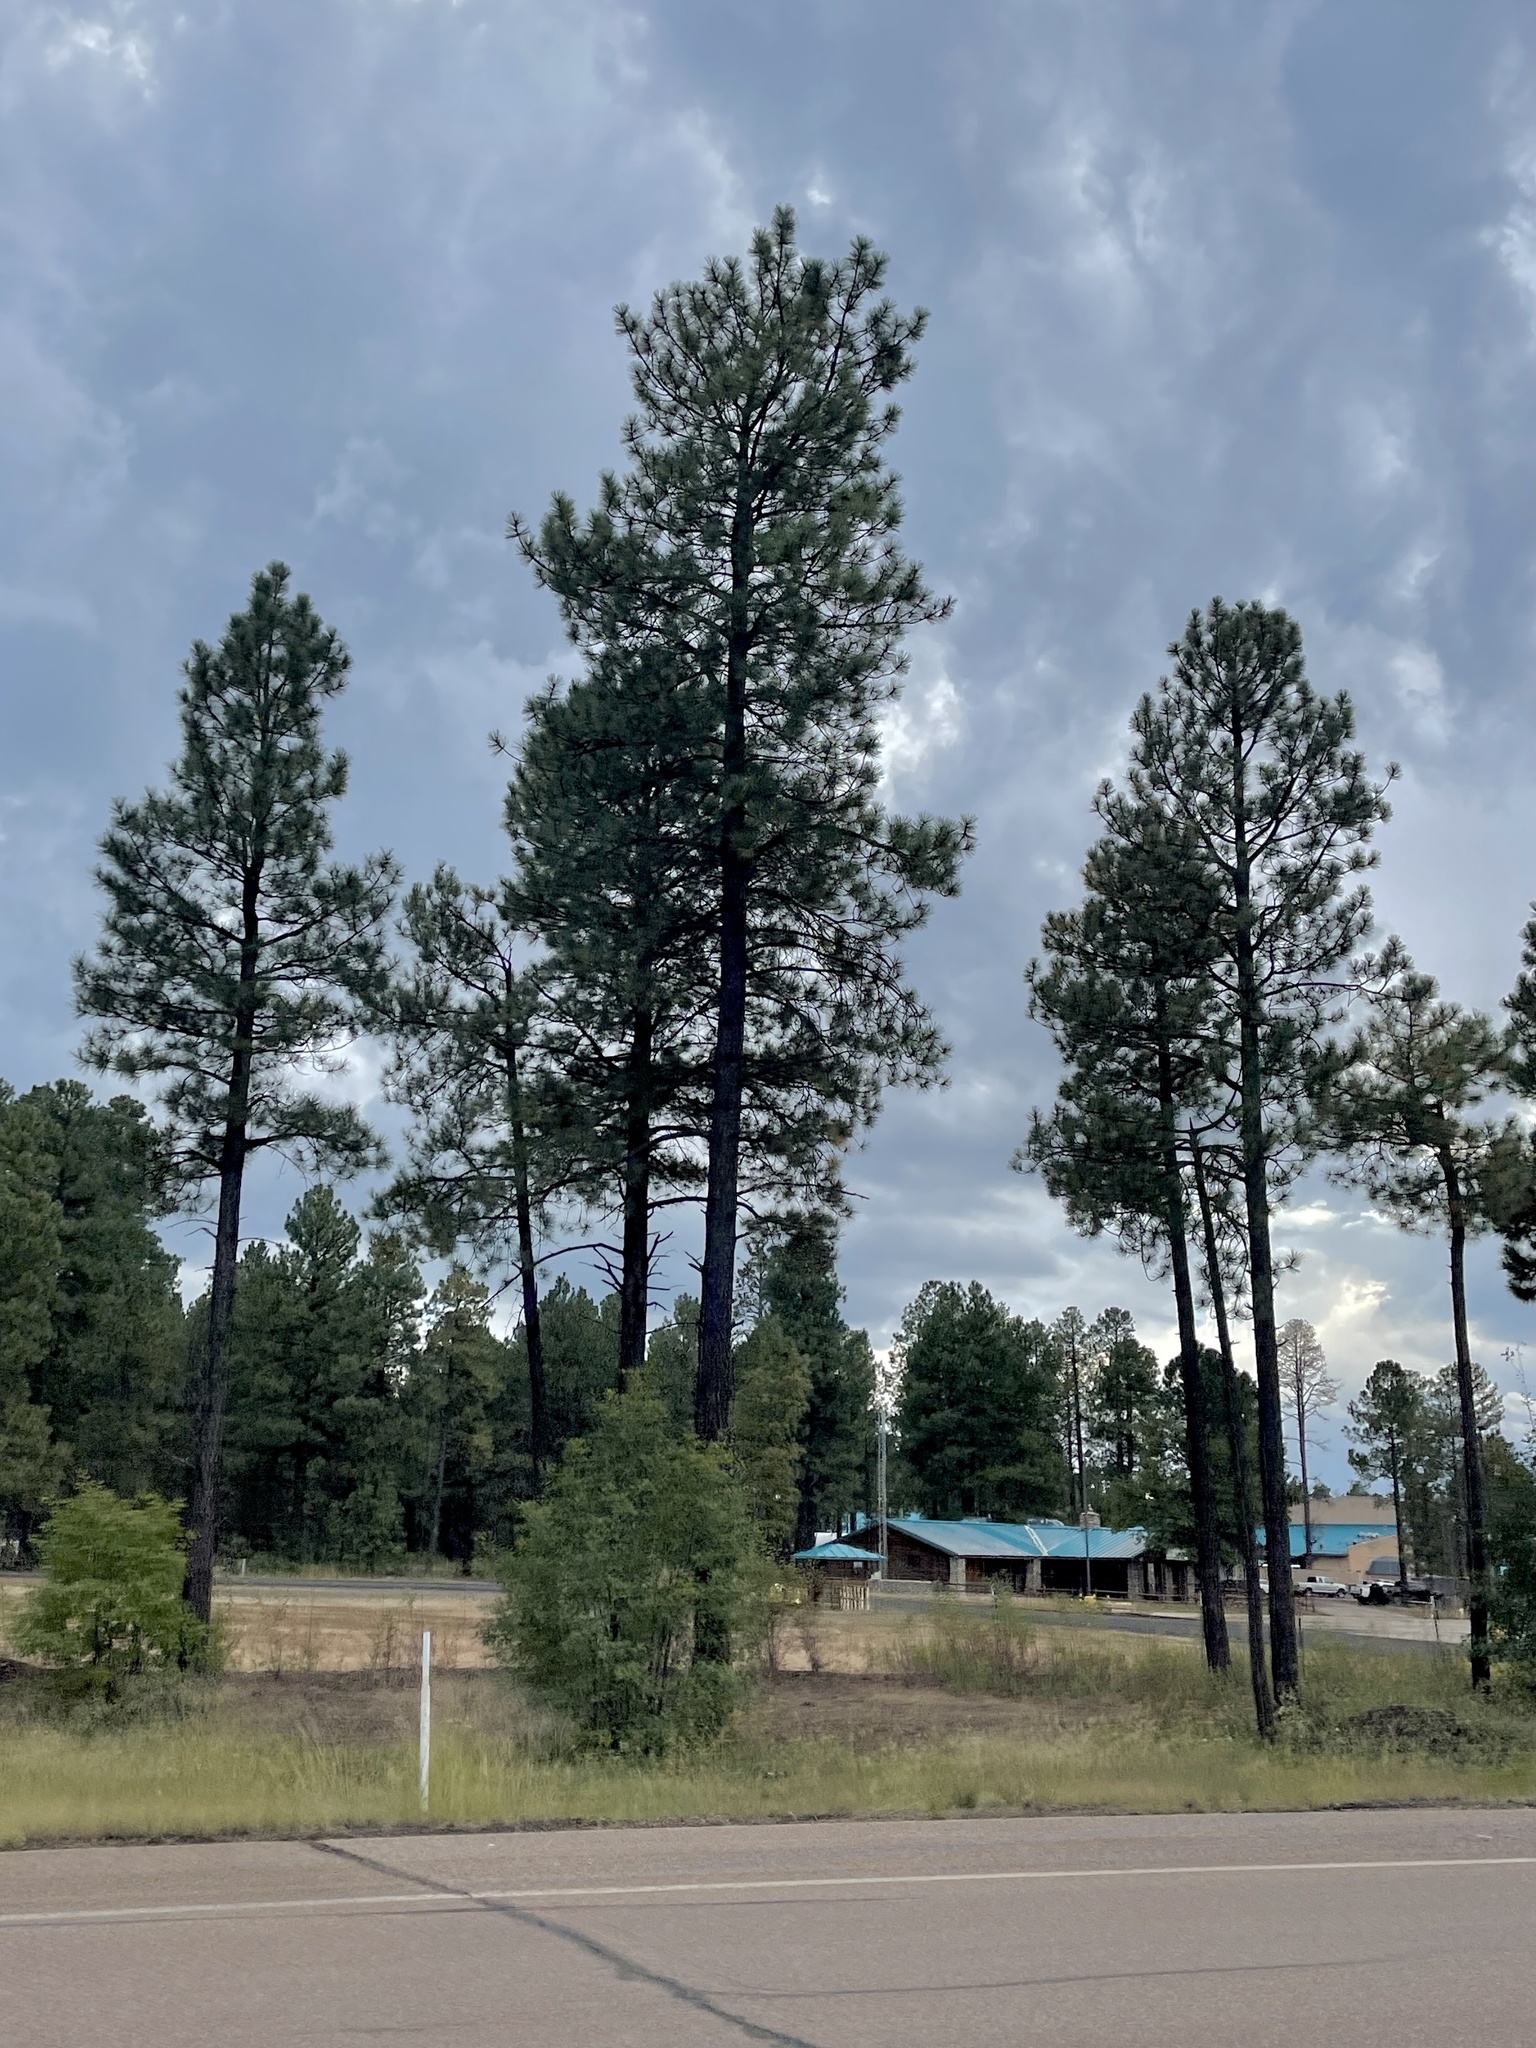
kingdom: Plantae
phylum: Tracheophyta
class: Pinopsida
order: Pinales
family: Pinaceae
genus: Pinus
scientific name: Pinus ponderosa
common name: Western yellow-pine
